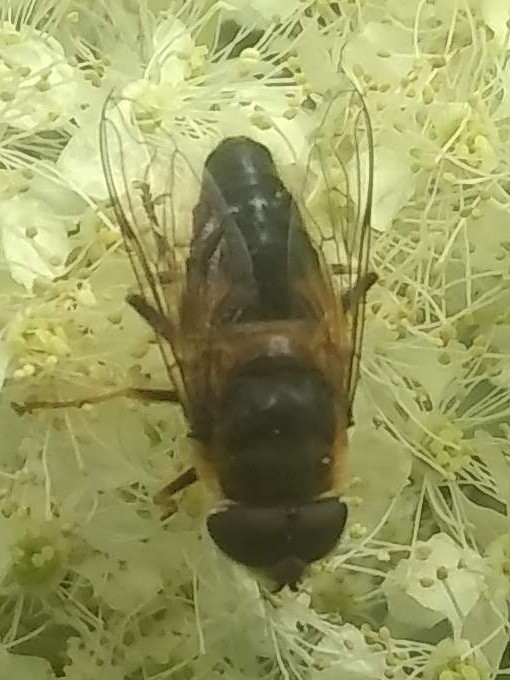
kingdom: Animalia
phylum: Arthropoda
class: Insecta
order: Diptera
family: Syrphidae
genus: Eristalis
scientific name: Eristalis pertinax
